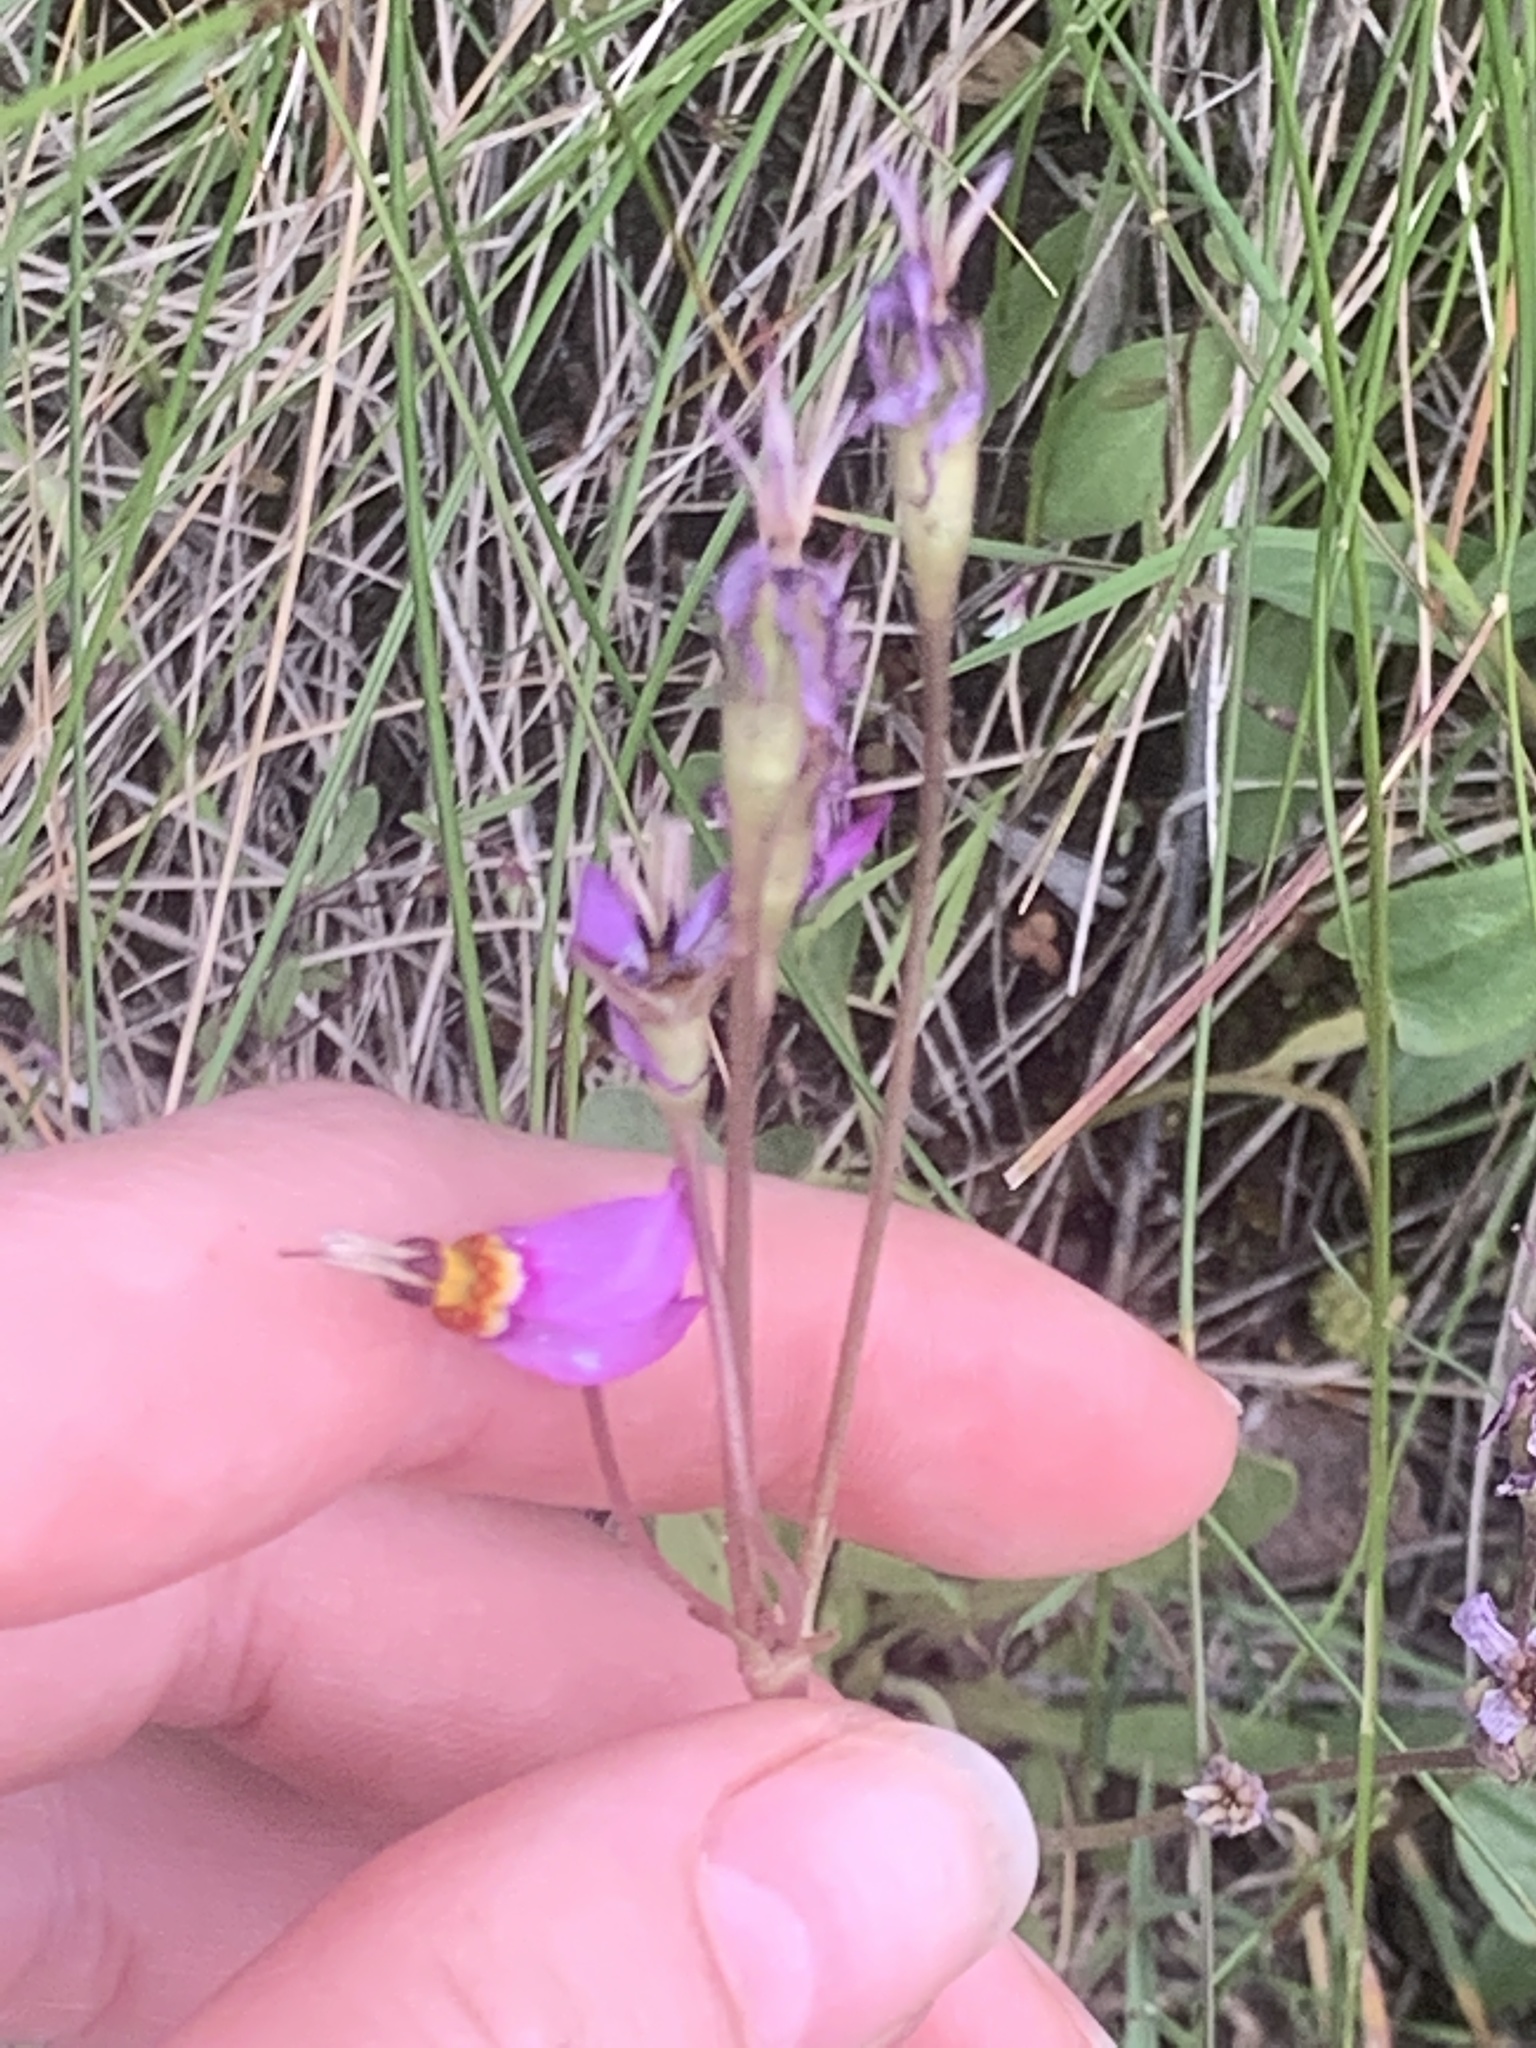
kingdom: Plantae
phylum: Tracheophyta
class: Magnoliopsida
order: Ericales
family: Primulaceae
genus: Dodecatheon
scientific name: Dodecatheon pulchellum
